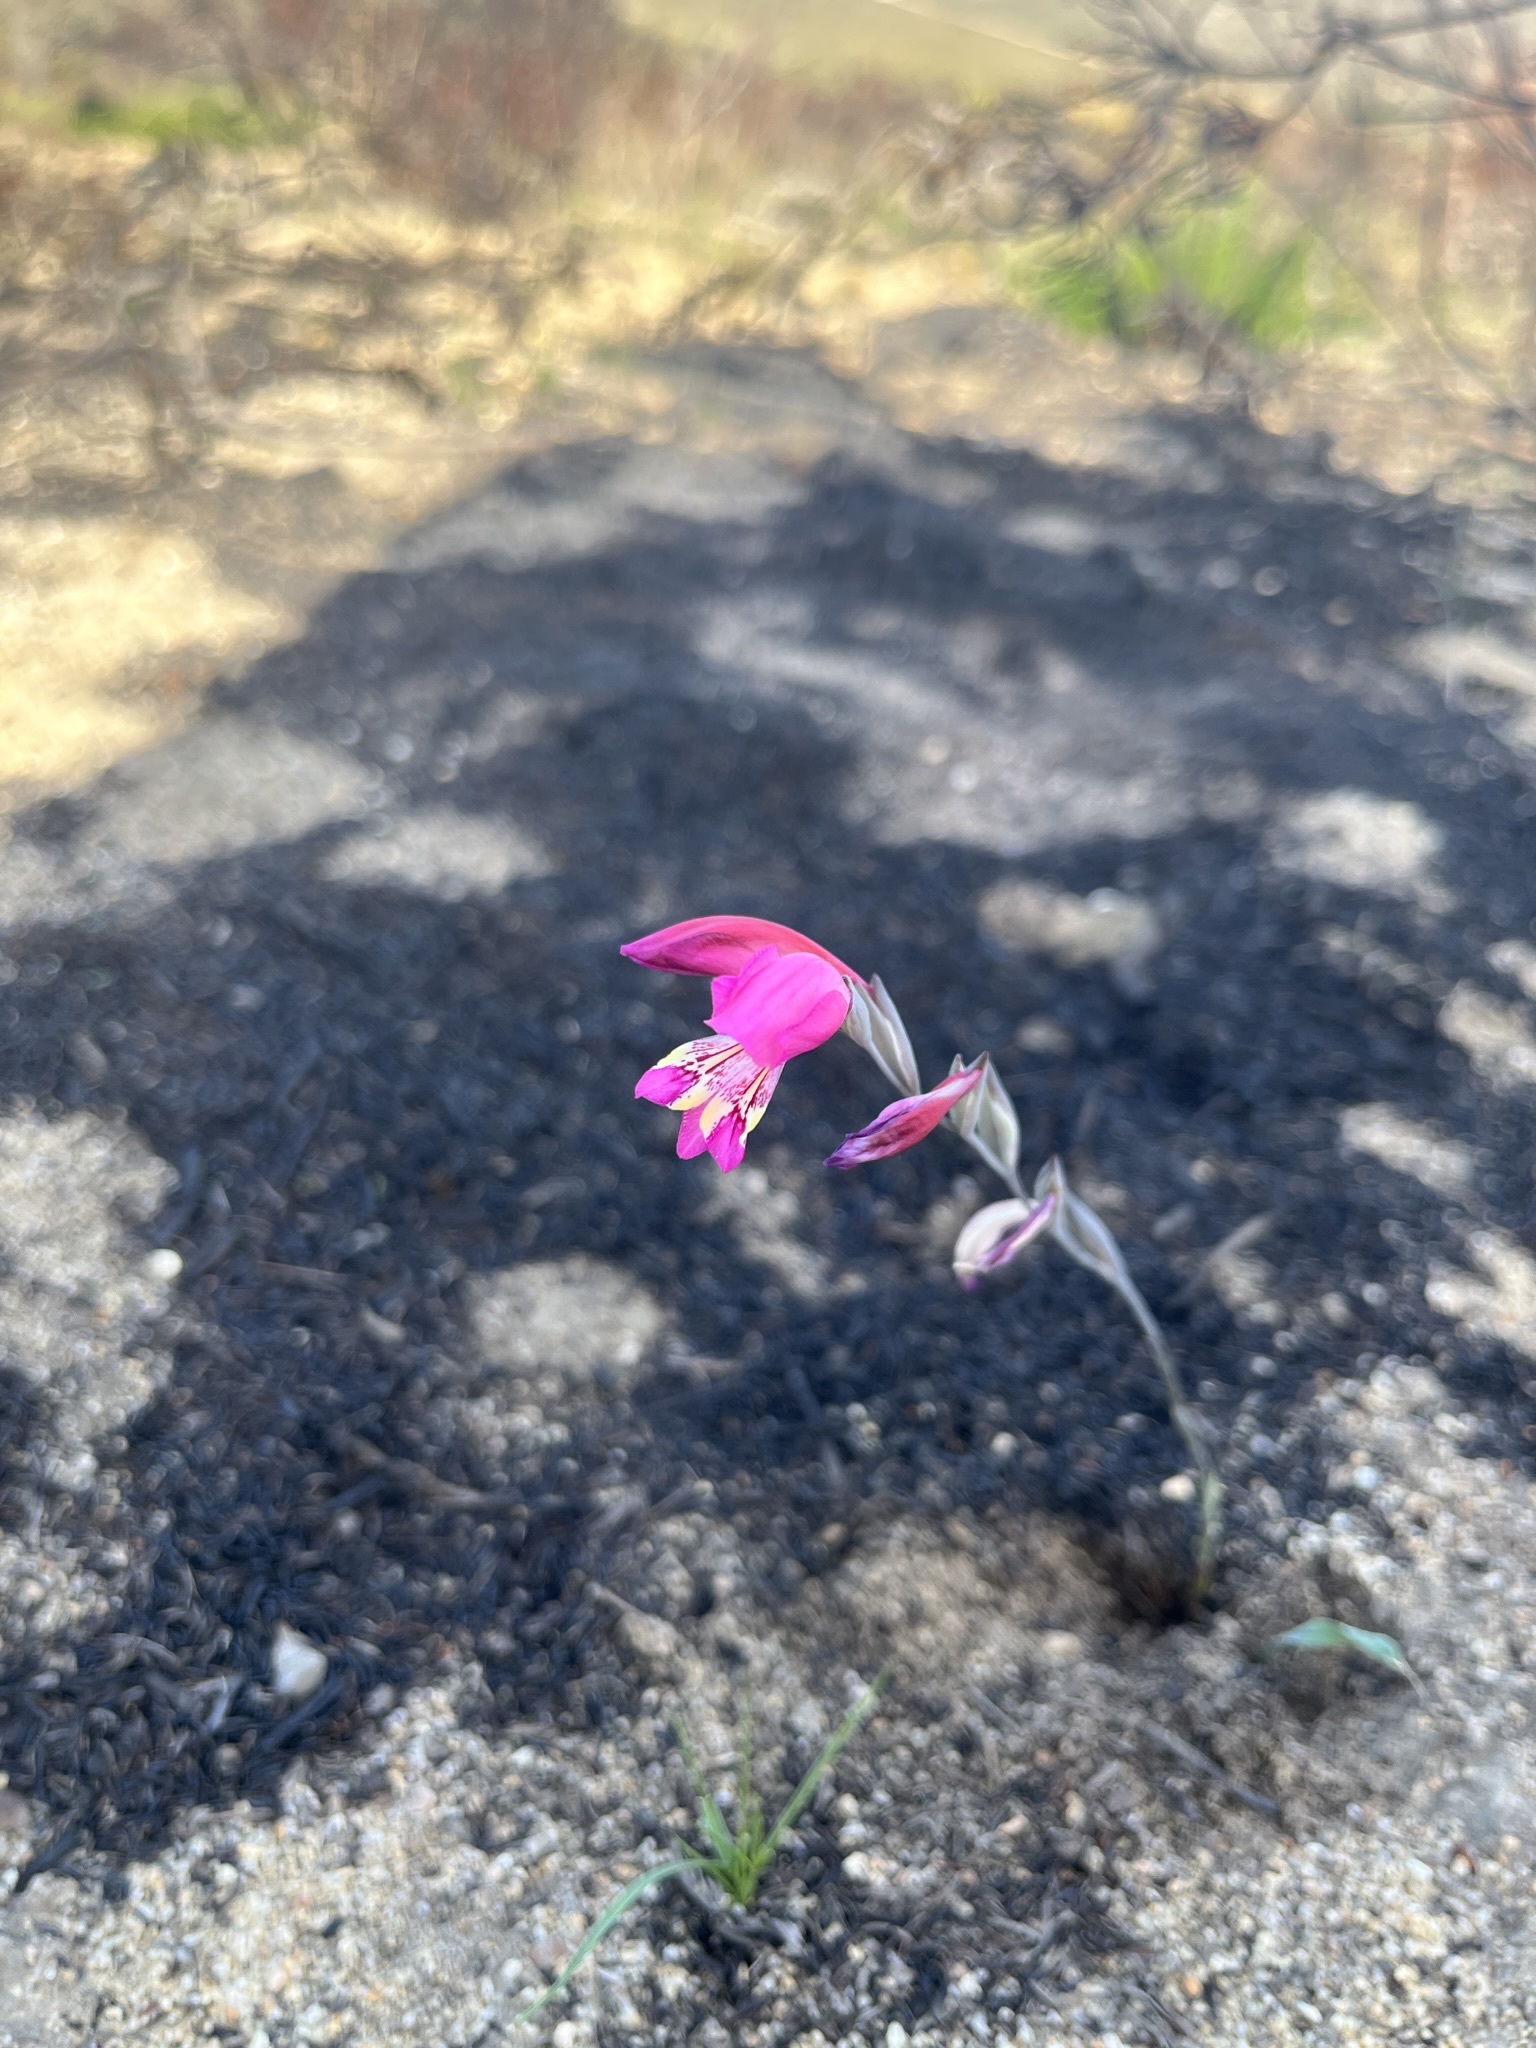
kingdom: Plantae
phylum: Tracheophyta
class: Liliopsida
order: Asparagales
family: Iridaceae
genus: Gladiolus
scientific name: Gladiolus brevifolius
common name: March pypie
